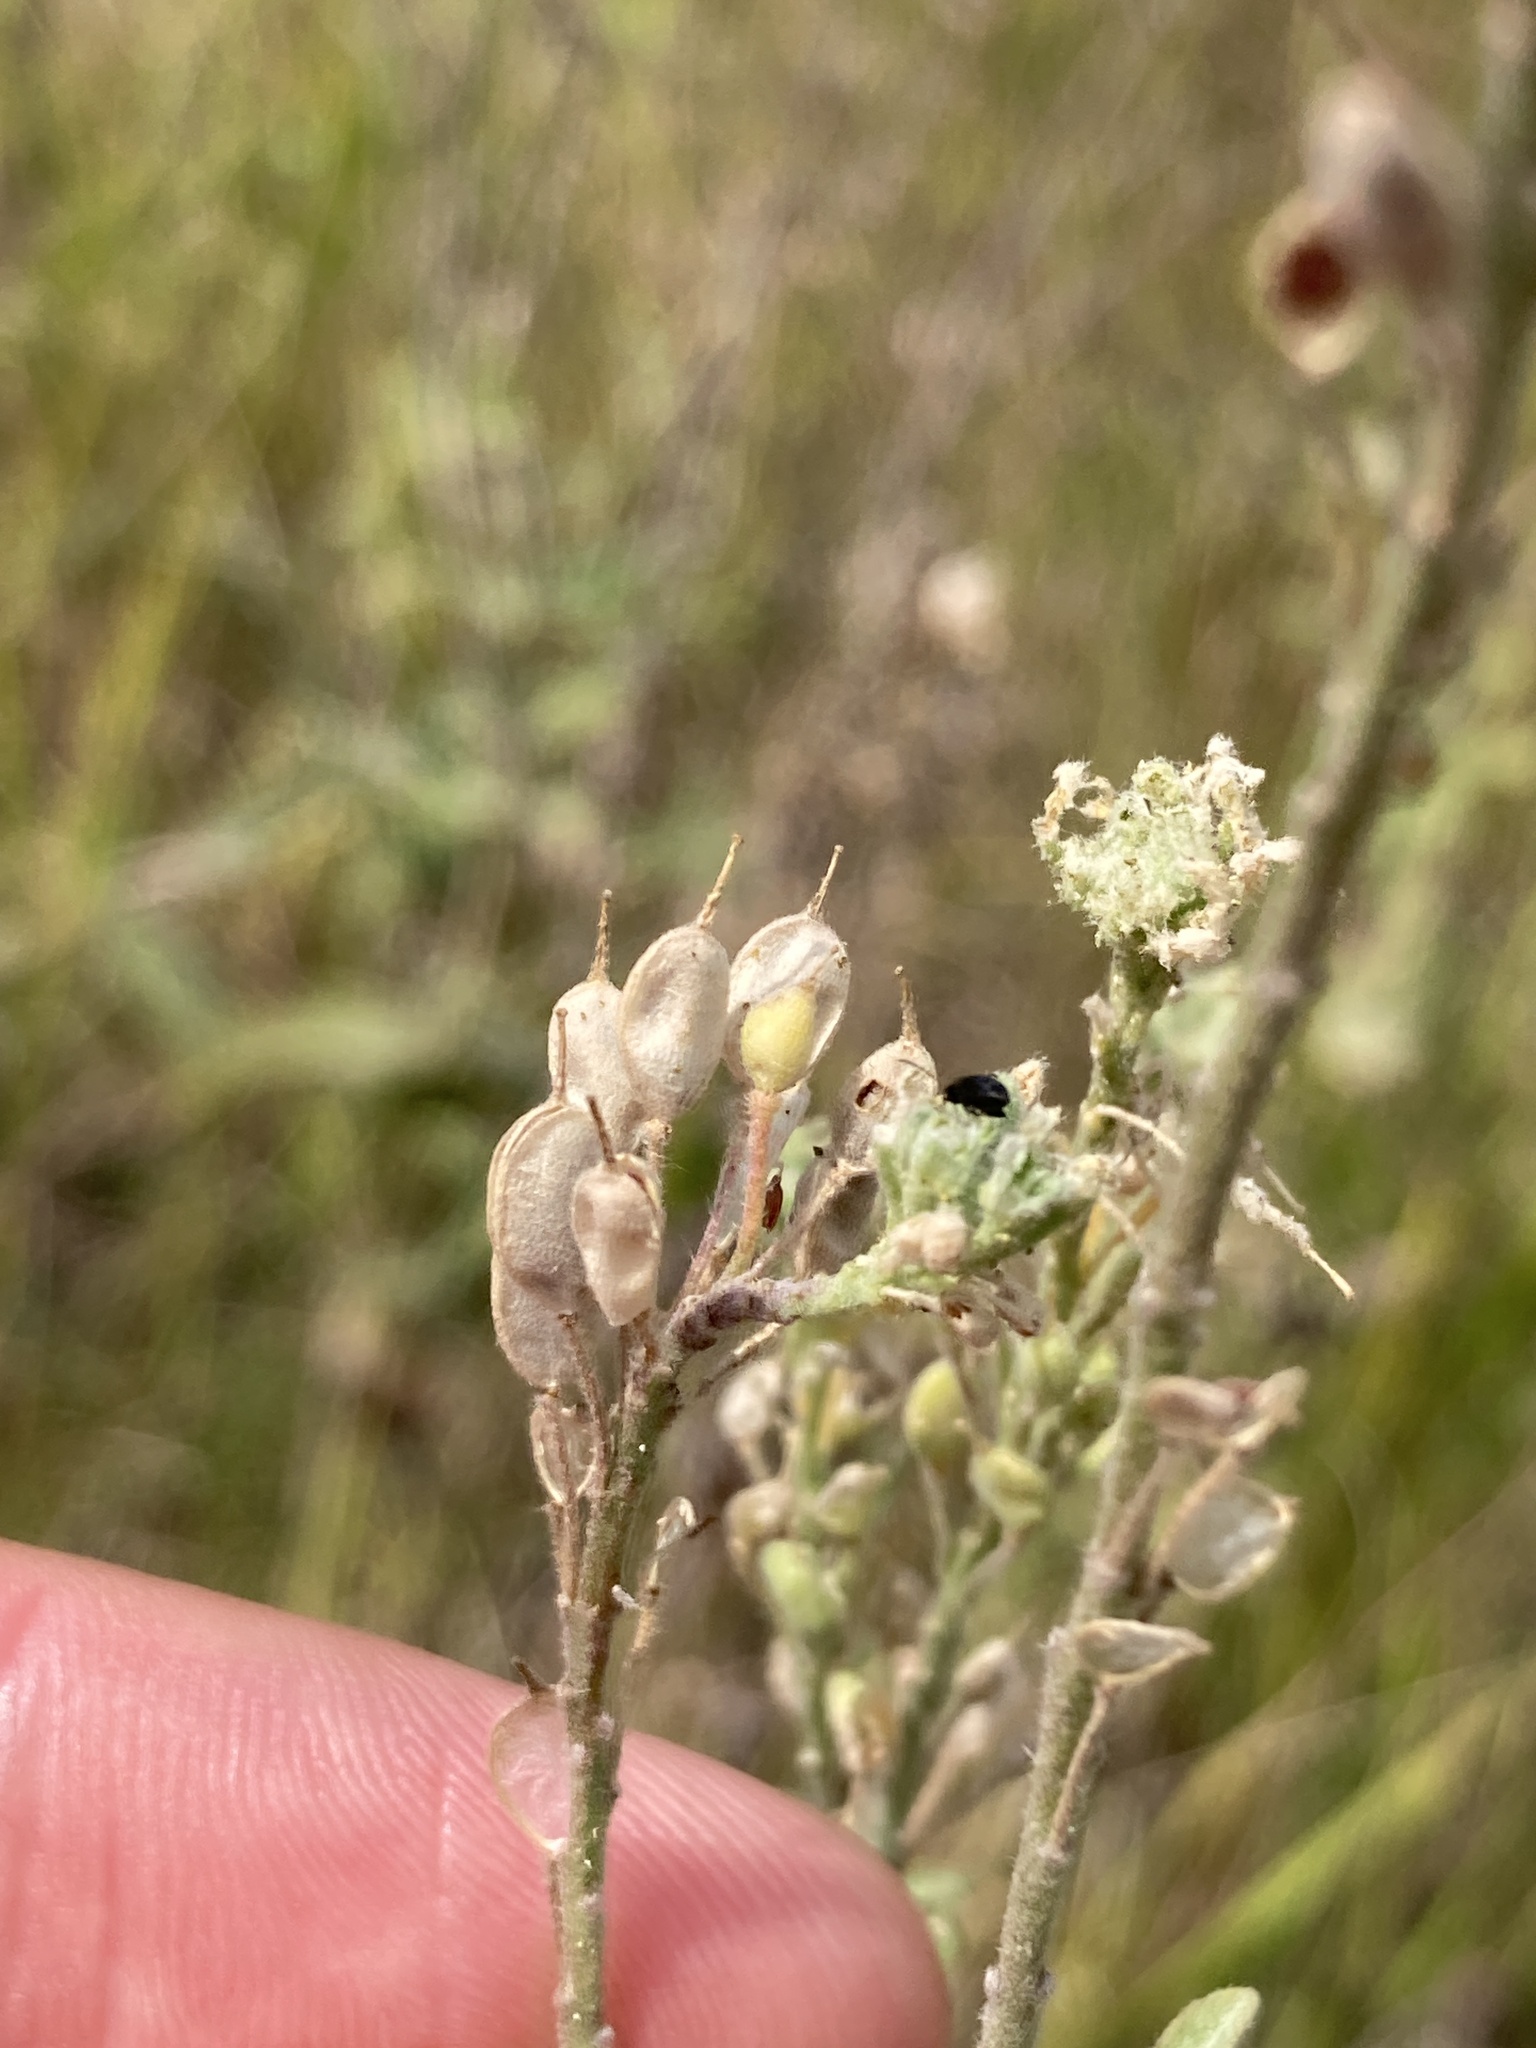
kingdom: Plantae
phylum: Tracheophyta
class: Magnoliopsida
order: Brassicales
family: Brassicaceae
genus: Berteroa
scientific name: Berteroa incana
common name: Hoary alison
